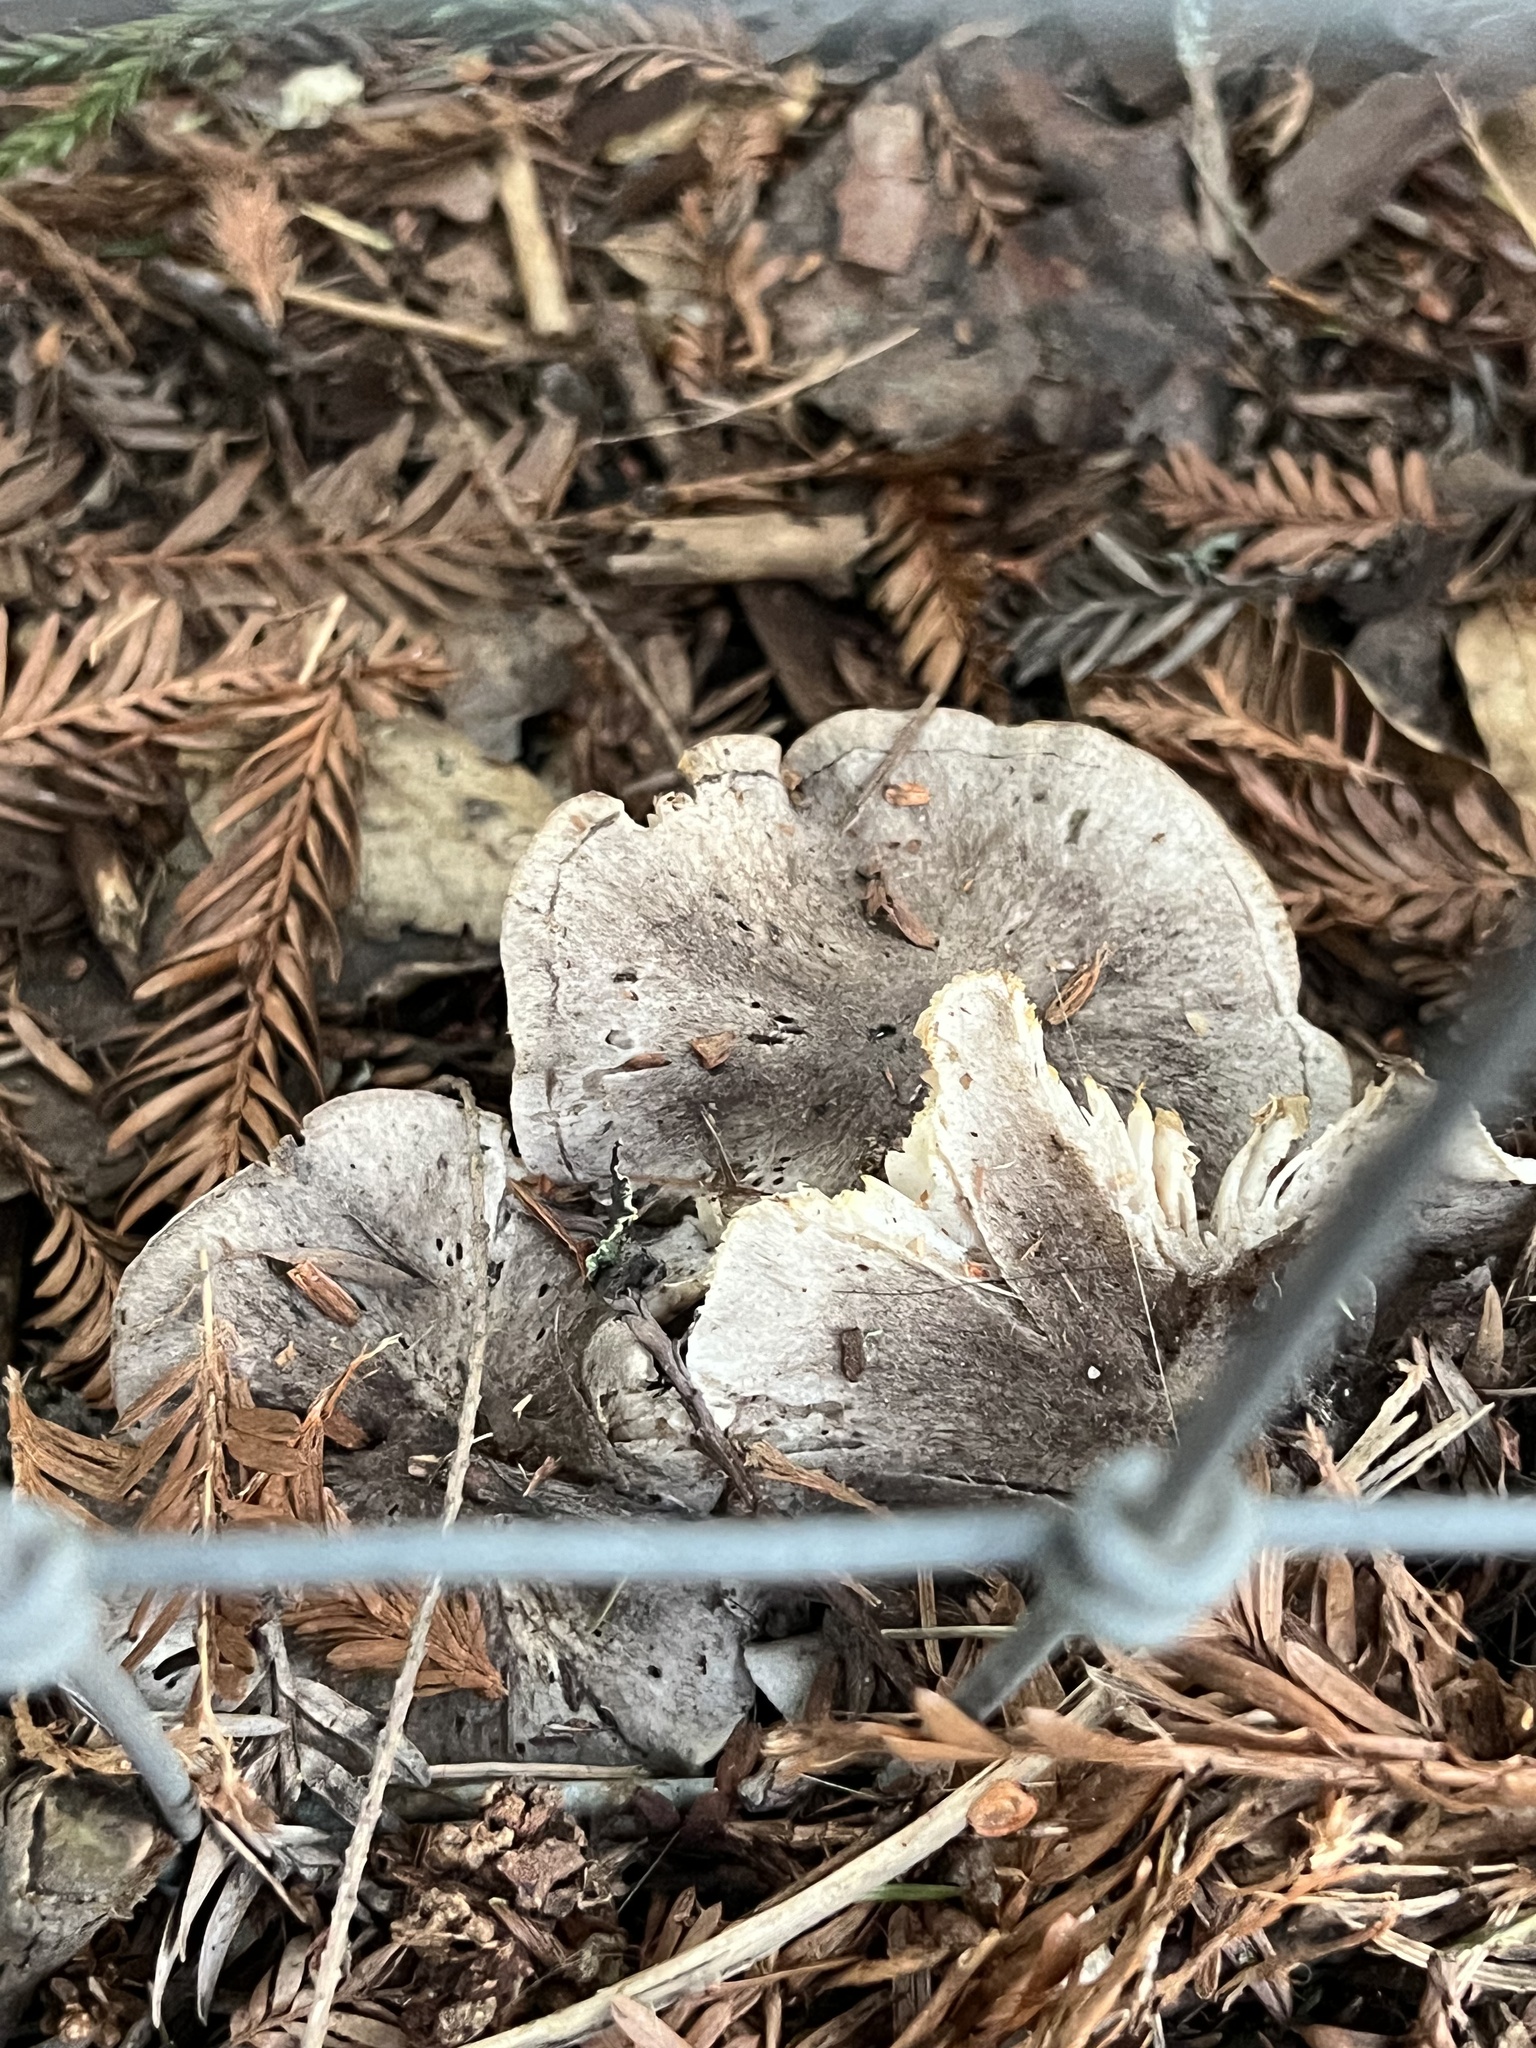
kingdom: Fungi
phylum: Basidiomycota
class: Agaricomycetes
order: Agaricales
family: Tricholomataceae
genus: Tricholoma
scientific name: Tricholoma terreum
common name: Grey knight
